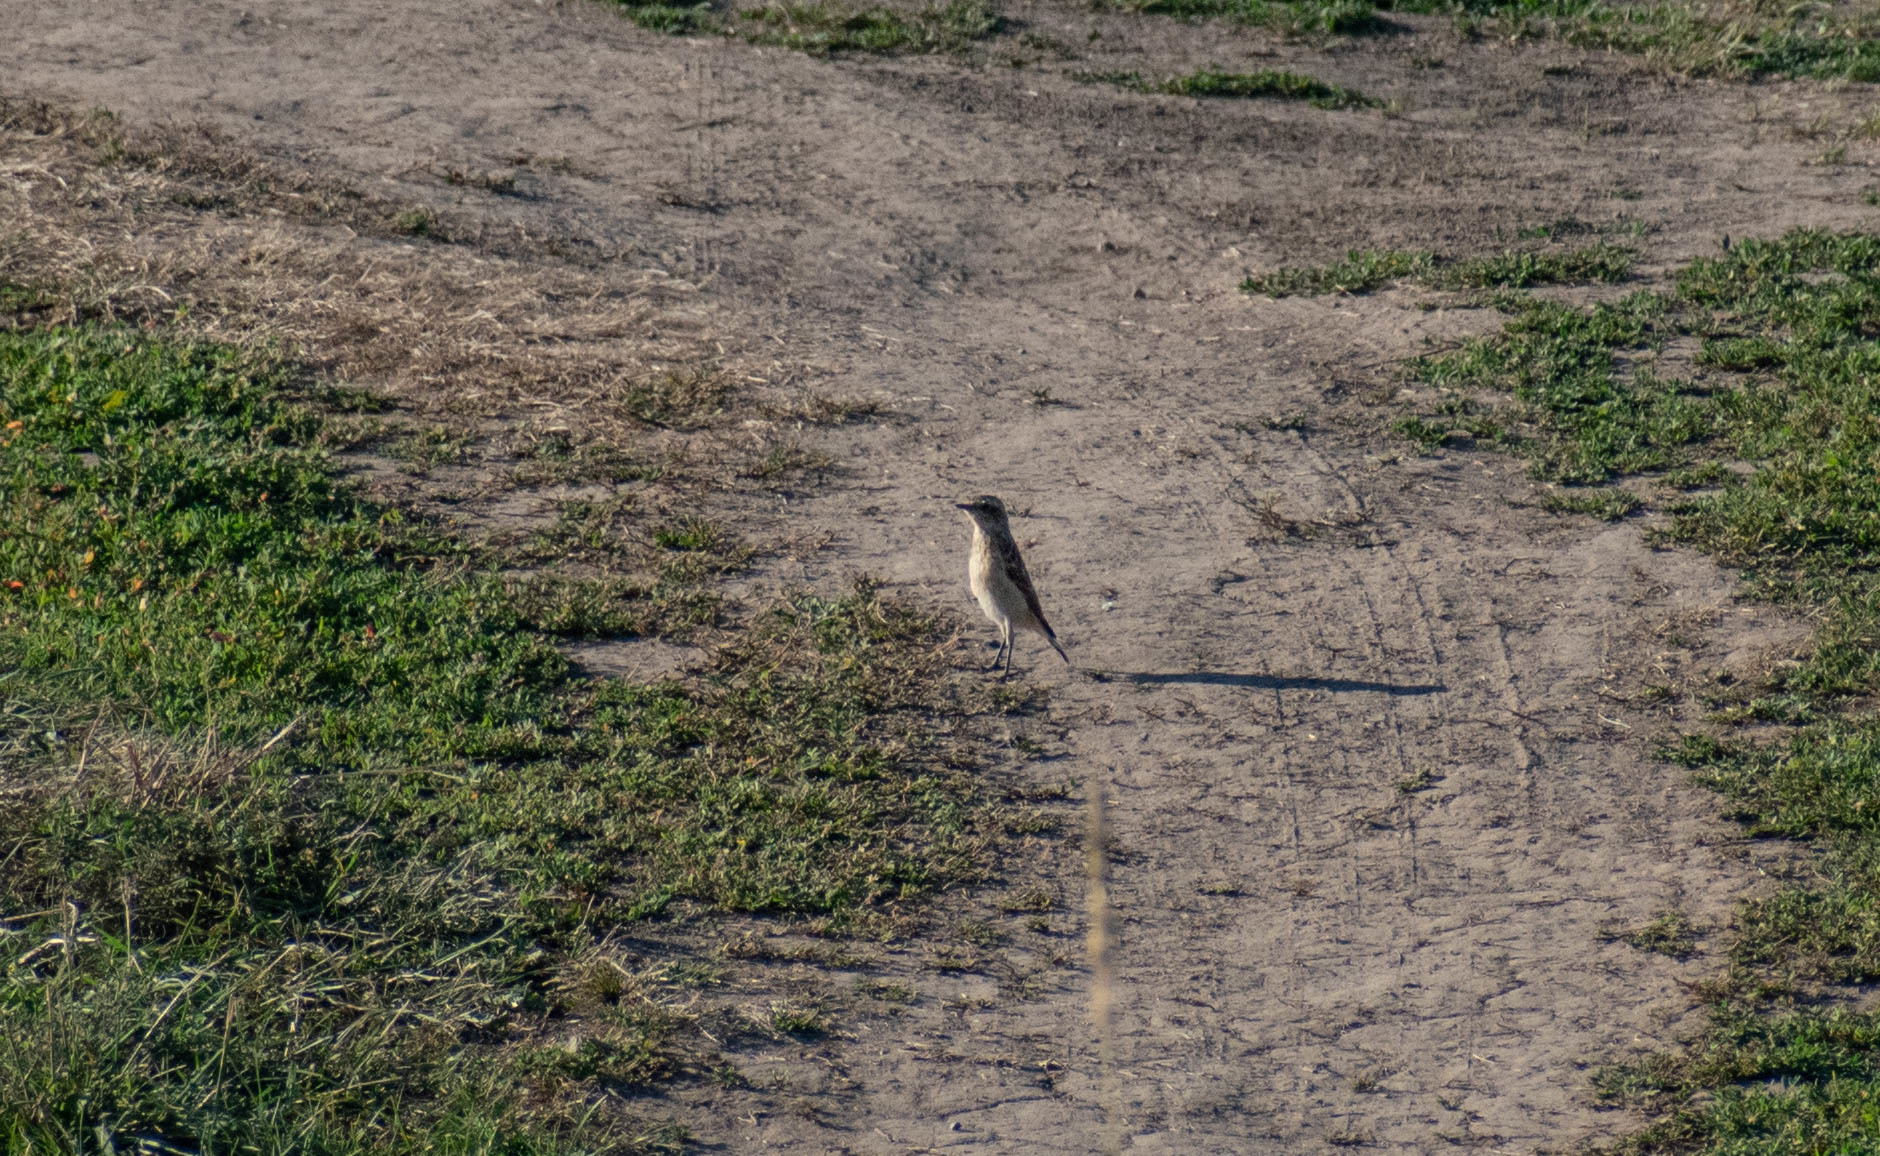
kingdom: Animalia
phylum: Chordata
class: Aves
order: Passeriformes
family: Muscicapidae
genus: Oenanthe
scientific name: Oenanthe oenanthe
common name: Northern wheatear
